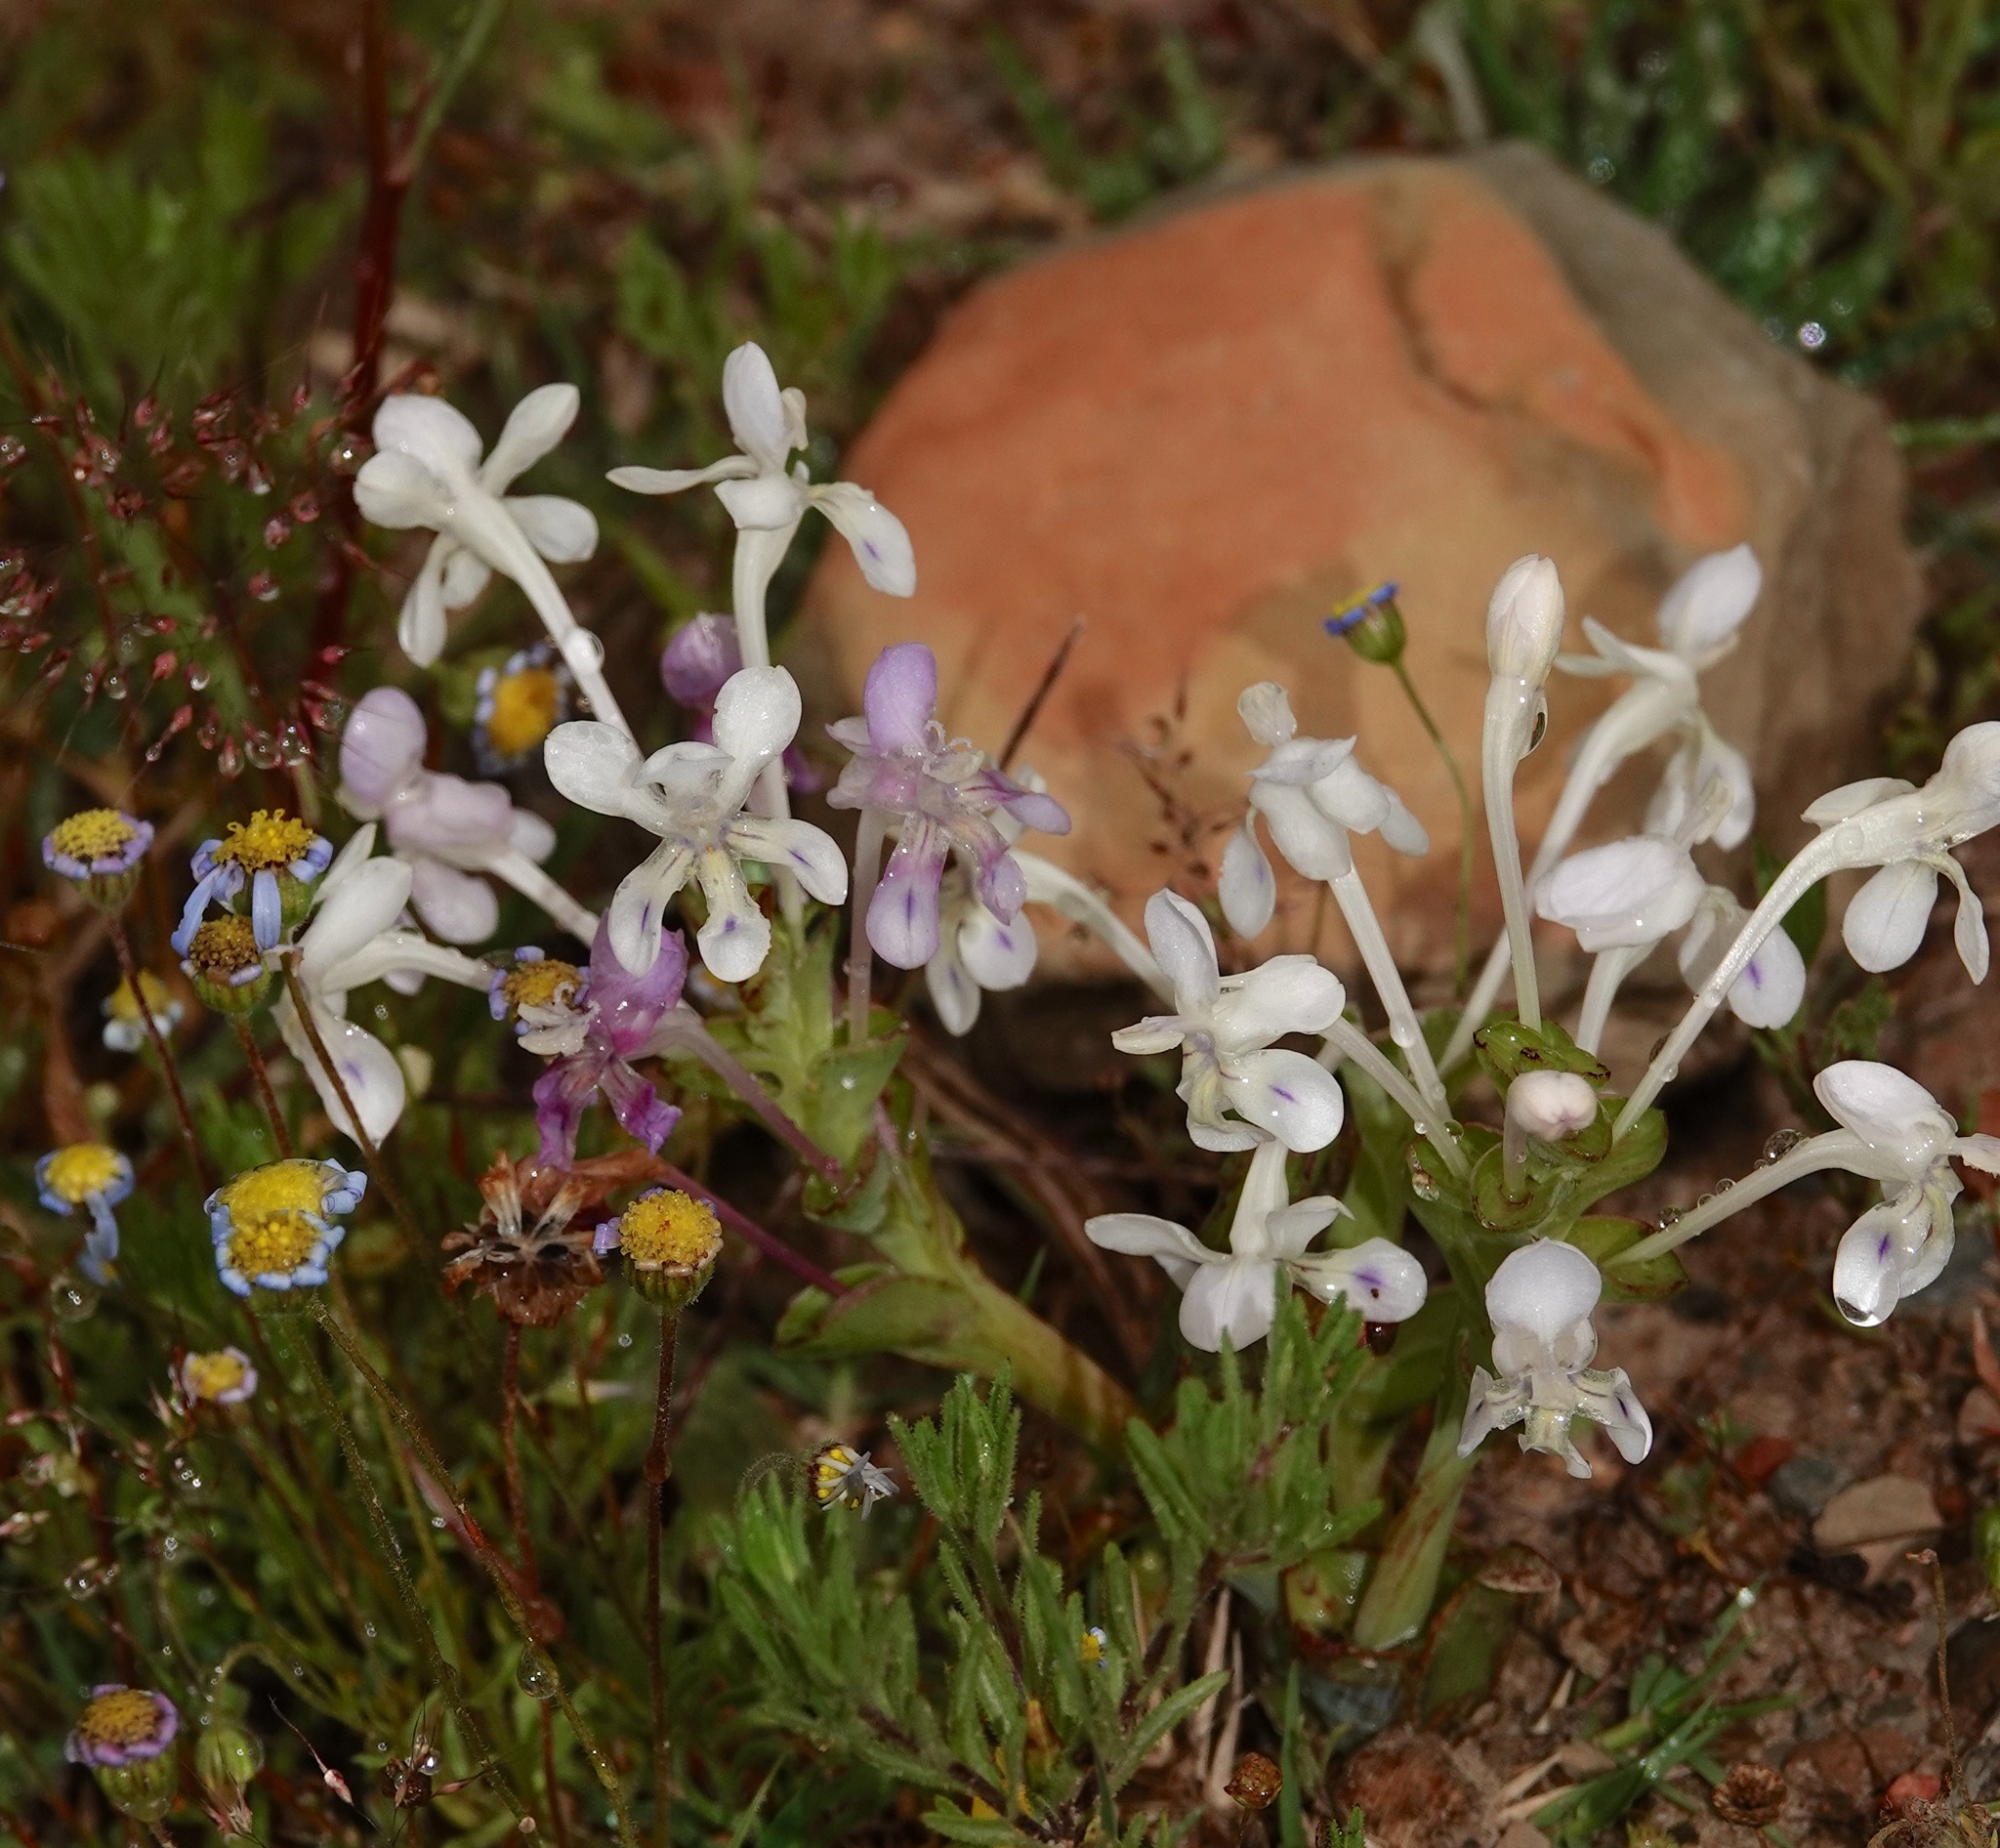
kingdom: Plantae
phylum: Tracheophyta
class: Liliopsida
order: Asparagales
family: Iridaceae
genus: Lapeirousia
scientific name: Lapeirousia pyramidalis
